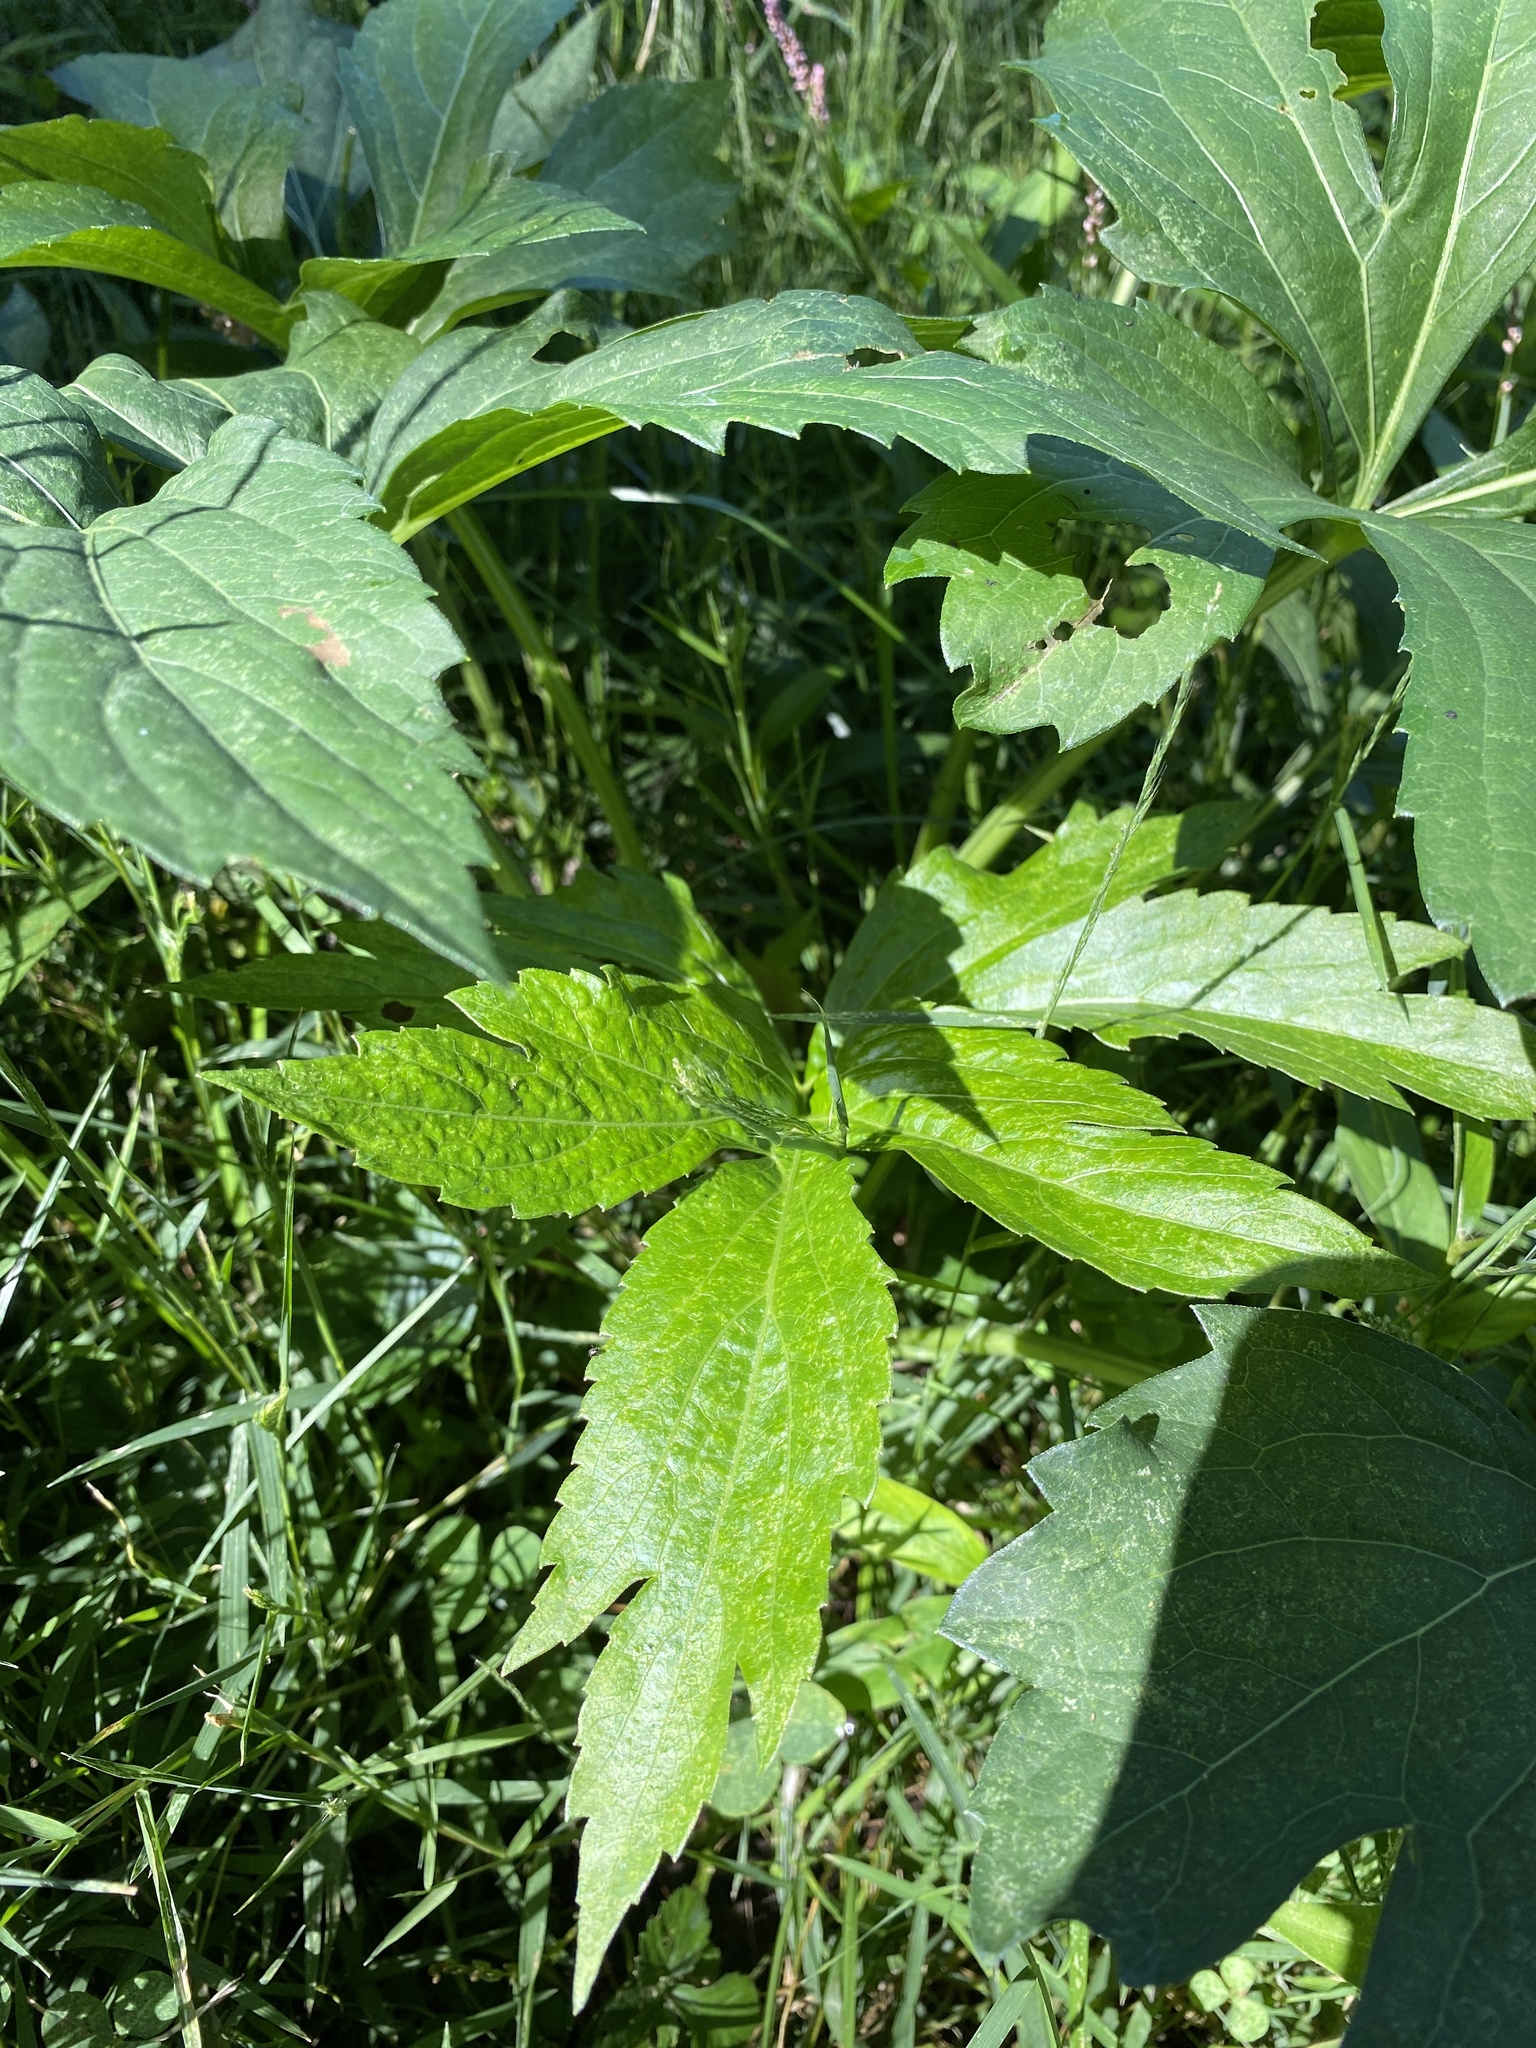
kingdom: Plantae
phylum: Tracheophyta
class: Magnoliopsida
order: Asterales
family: Asteraceae
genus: Rudbeckia
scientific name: Rudbeckia laciniata
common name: Coneflower
